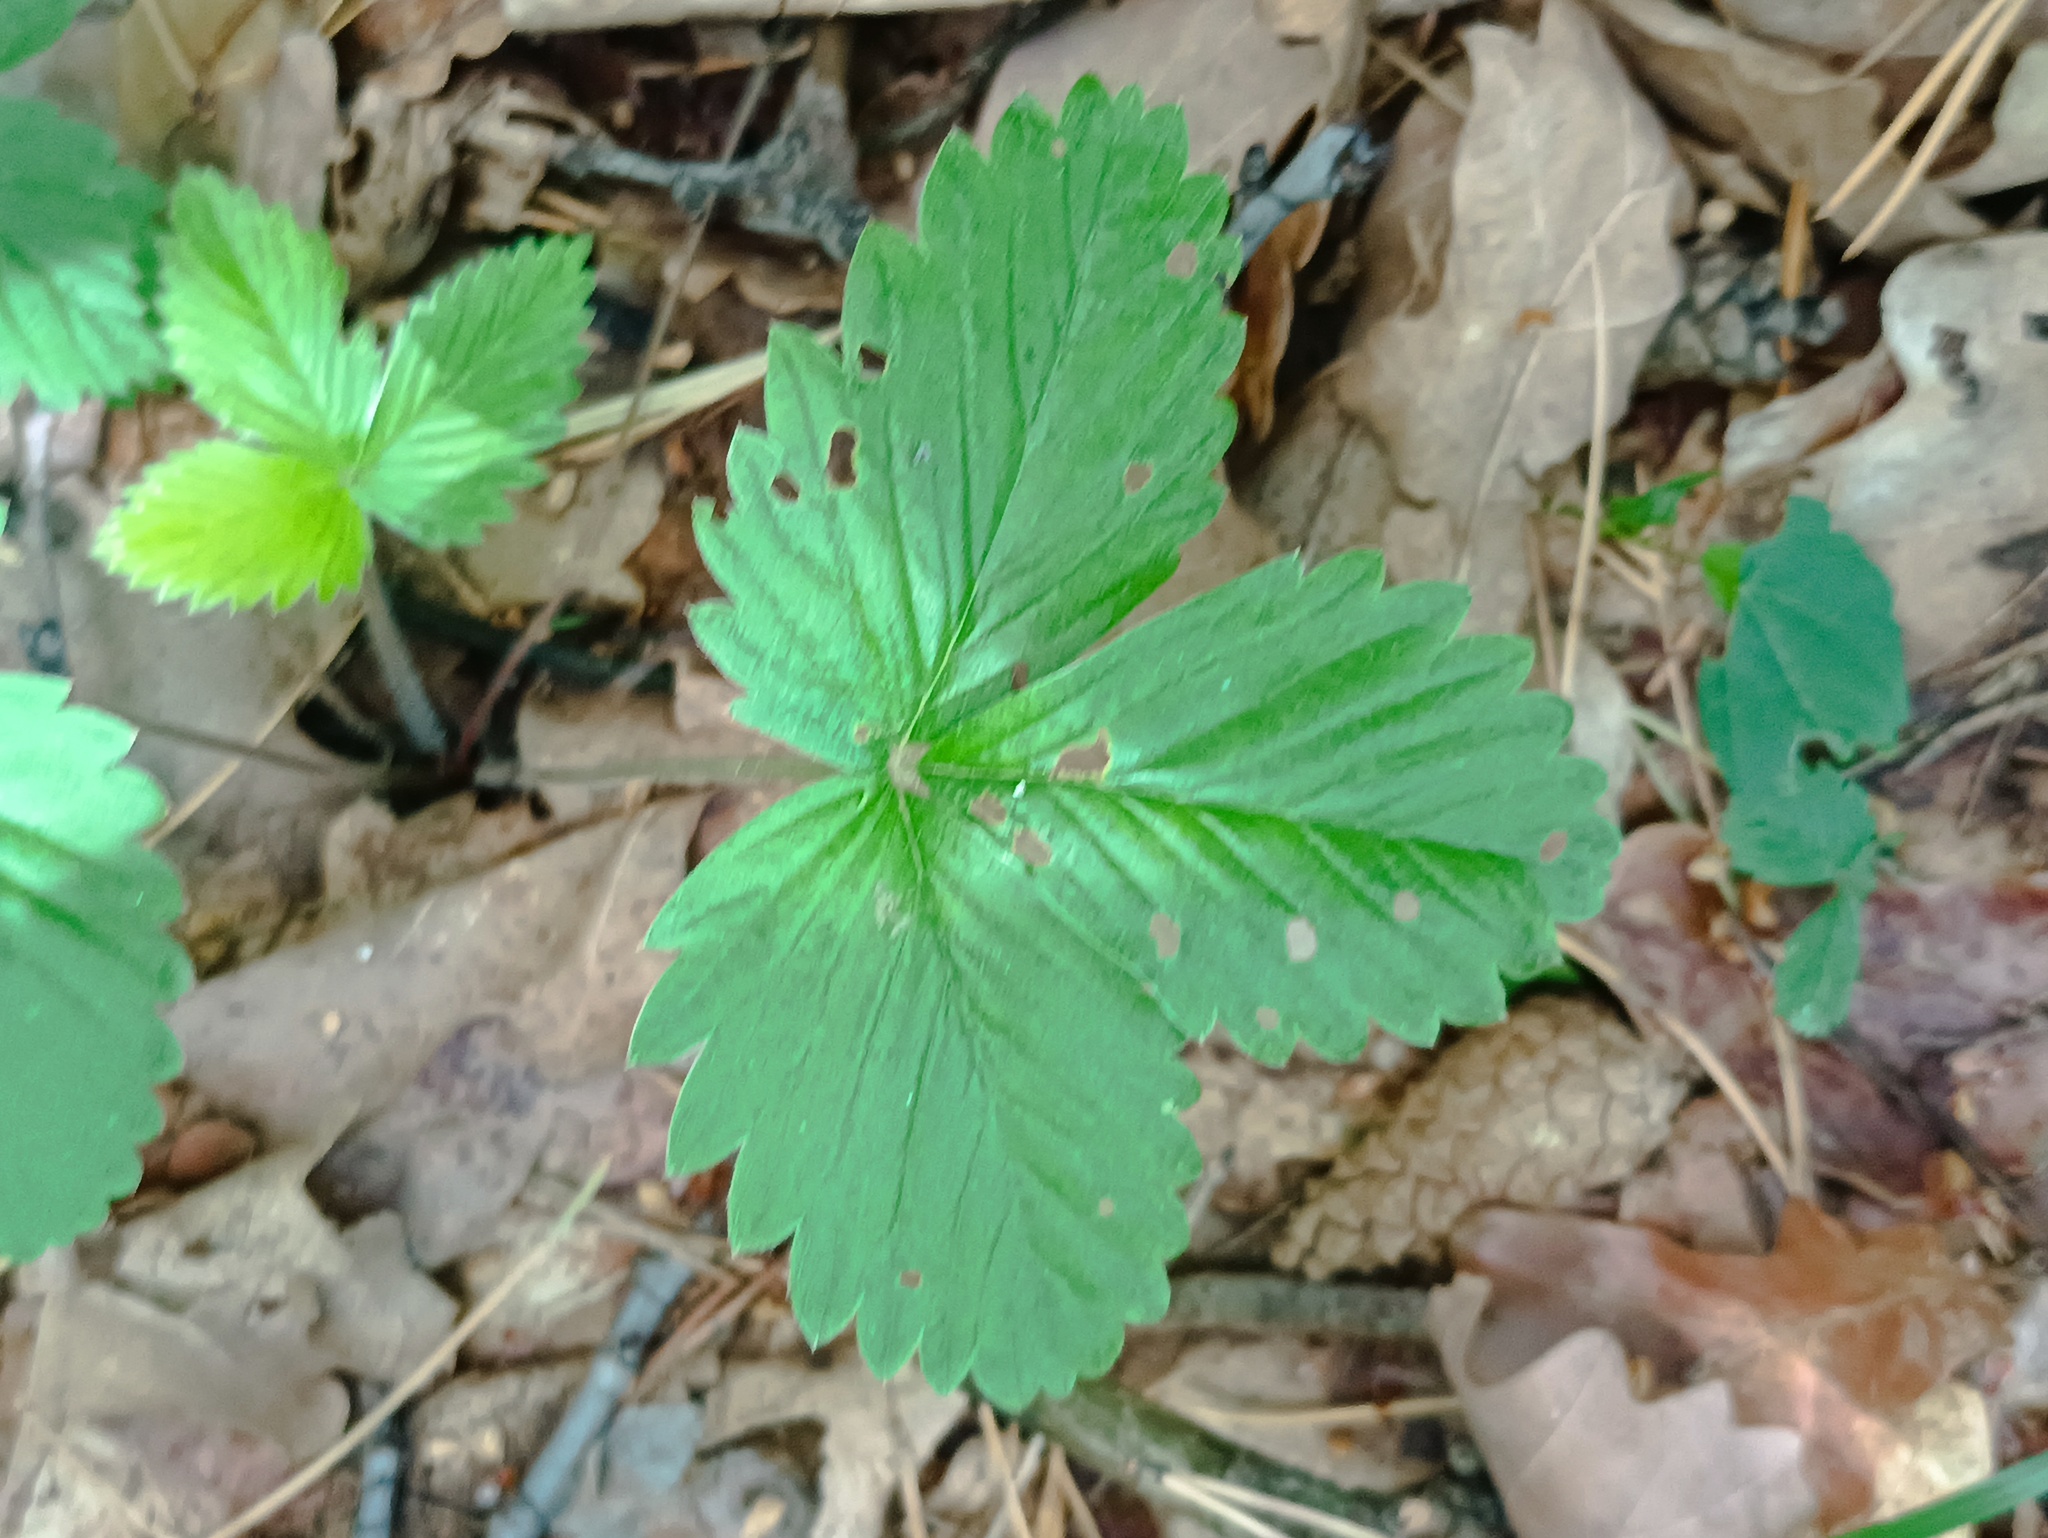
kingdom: Plantae
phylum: Tracheophyta
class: Magnoliopsida
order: Rosales
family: Rosaceae
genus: Fragaria
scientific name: Fragaria vesca
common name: Wild strawberry
